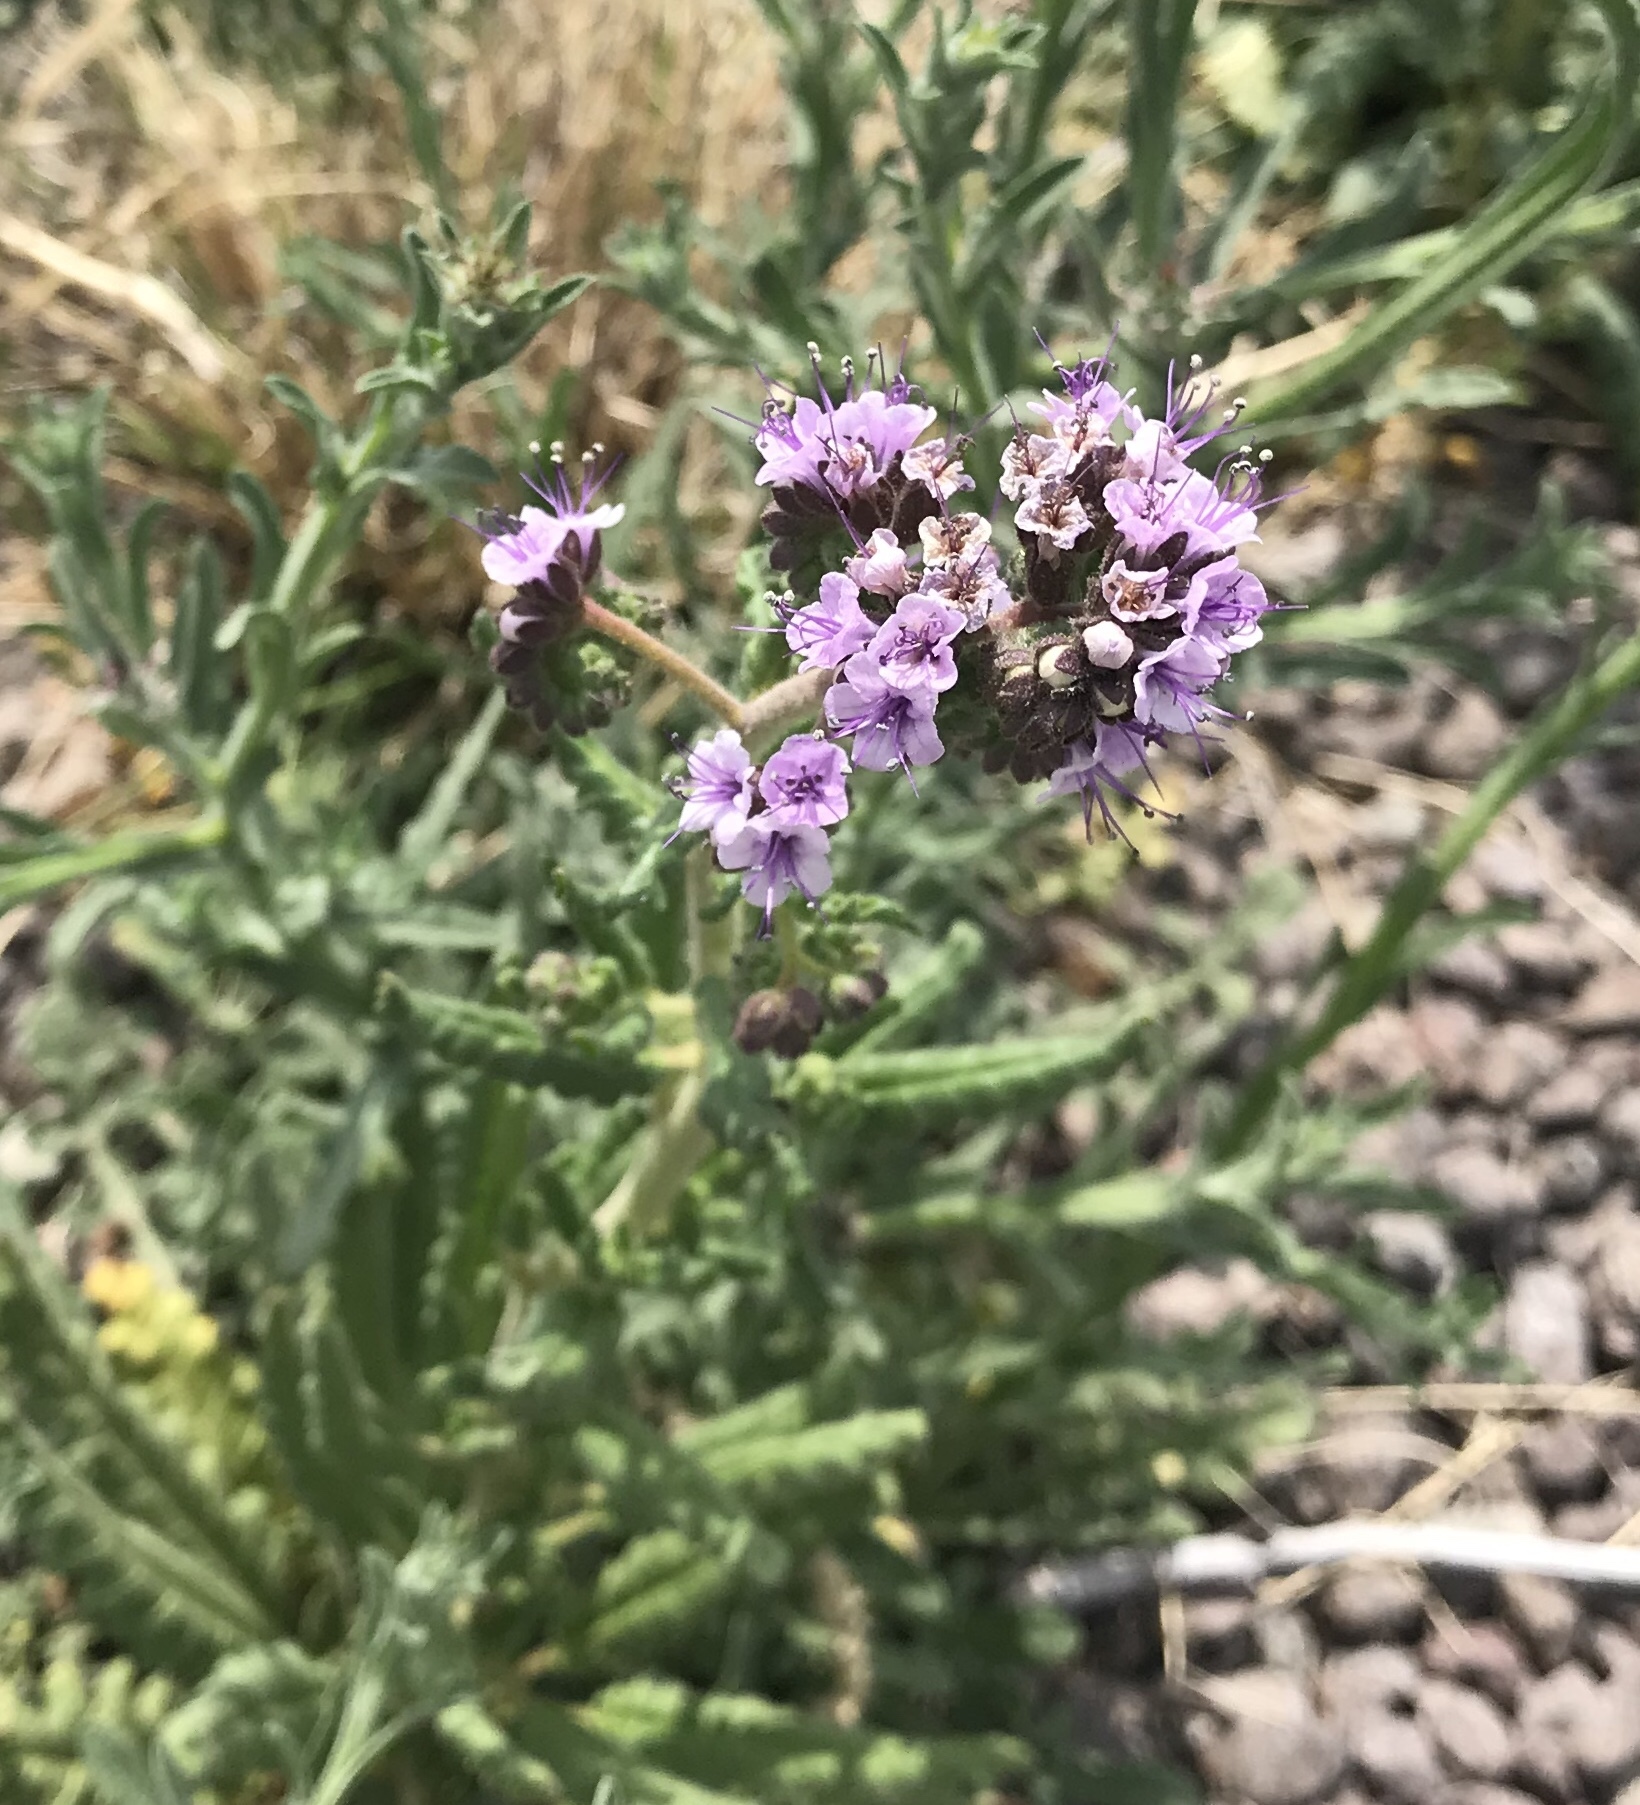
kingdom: Plantae
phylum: Tracheophyta
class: Magnoliopsida
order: Boraginales
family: Hydrophyllaceae
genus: Phacelia
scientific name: Phacelia integrifolia
